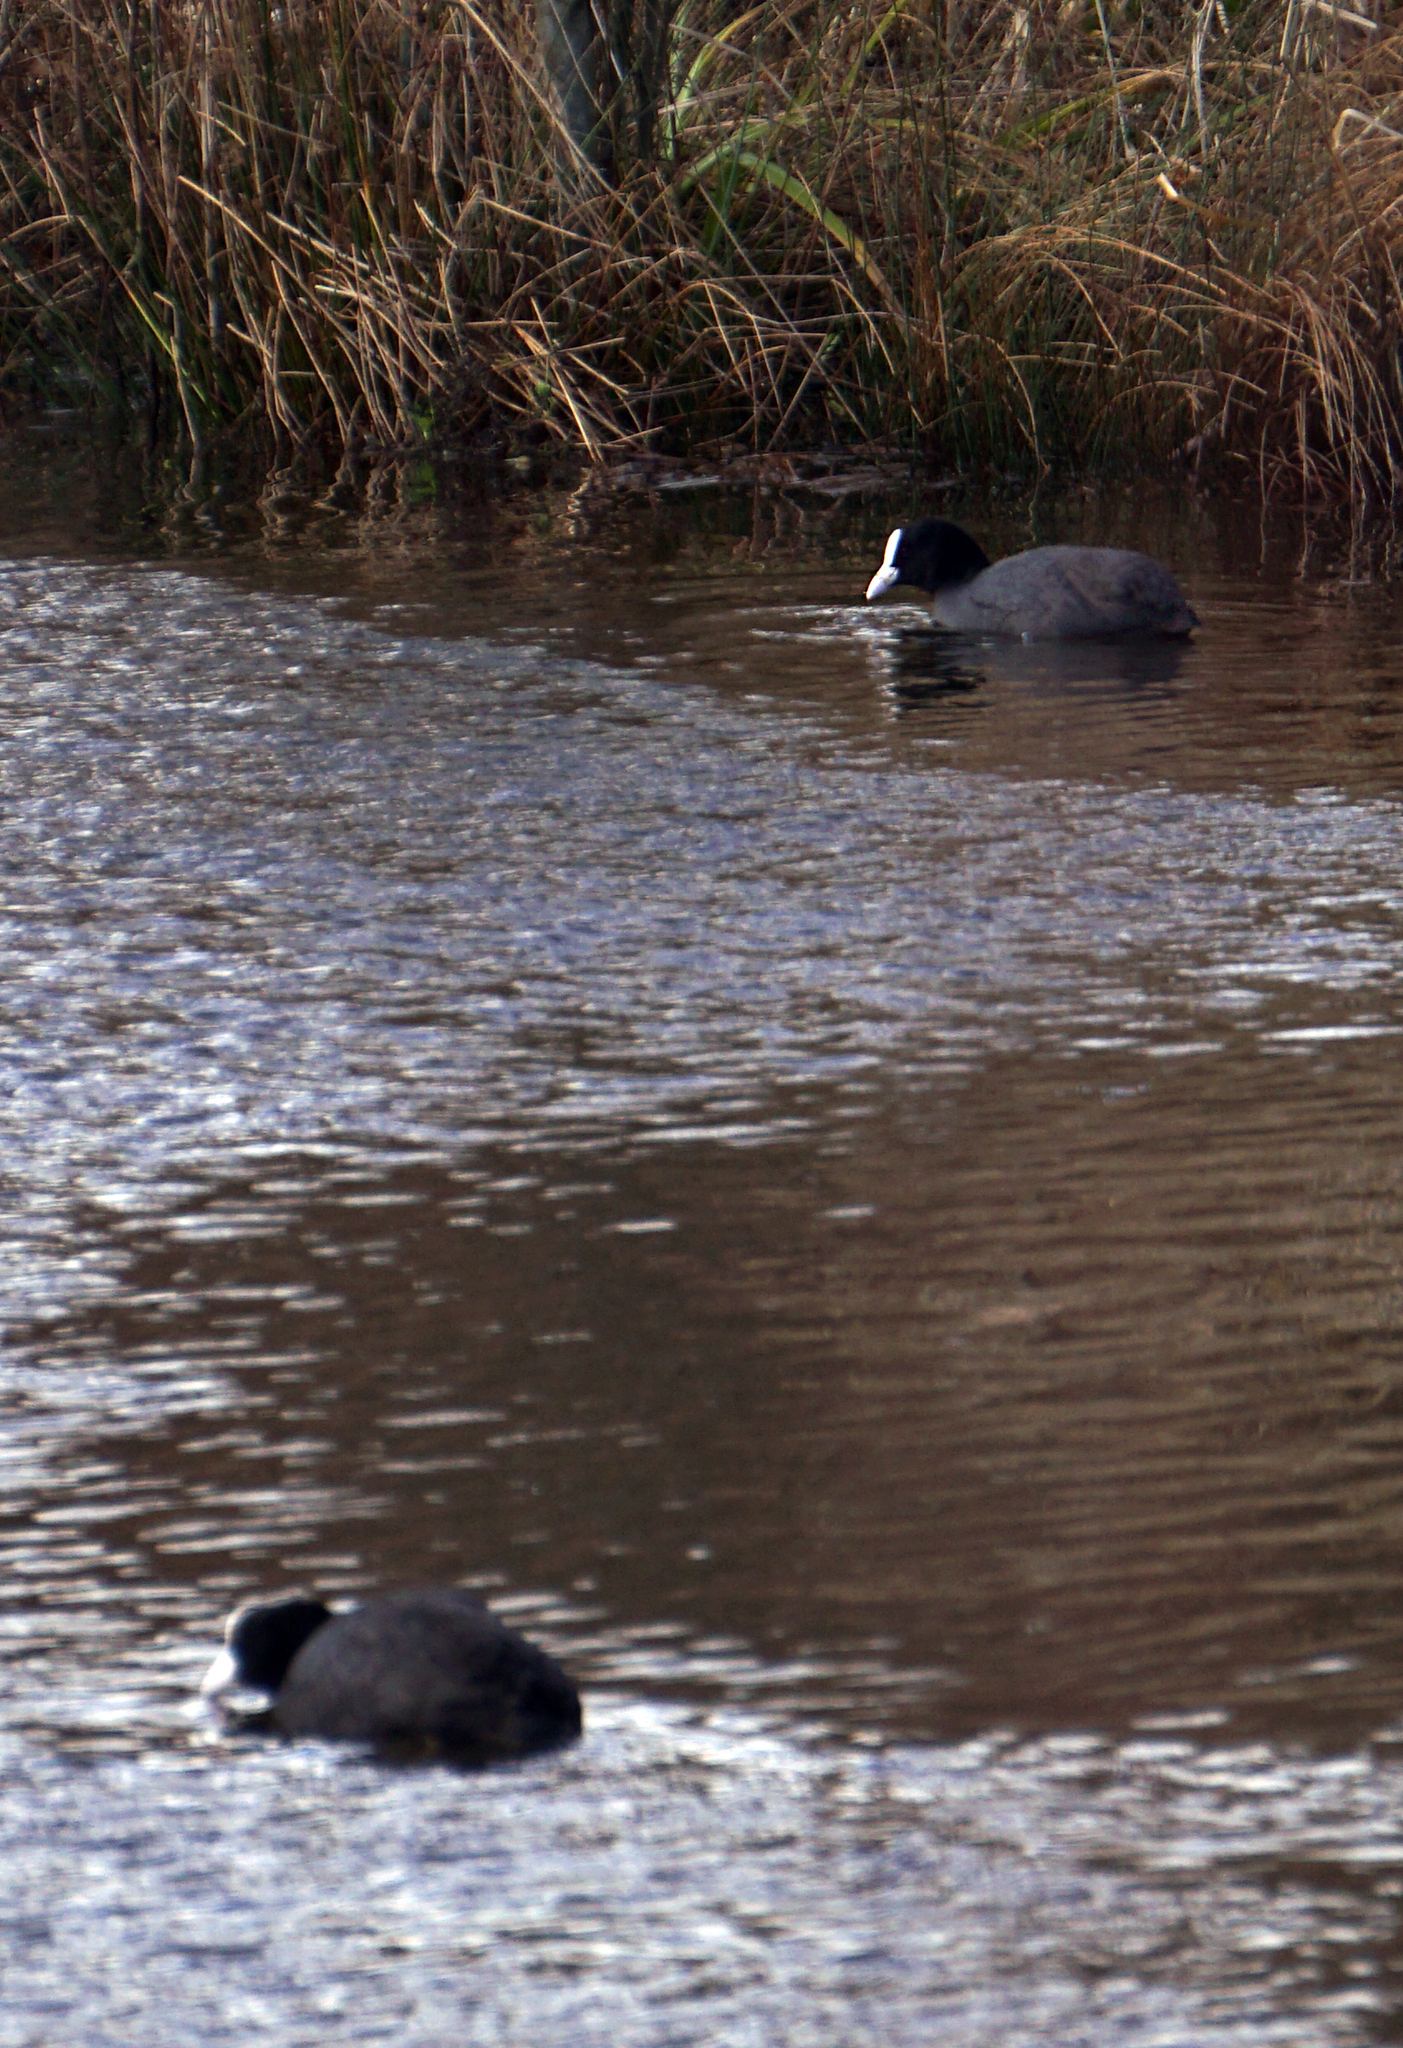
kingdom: Animalia
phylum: Chordata
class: Aves
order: Gruiformes
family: Rallidae
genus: Fulica
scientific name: Fulica atra
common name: Eurasian coot
